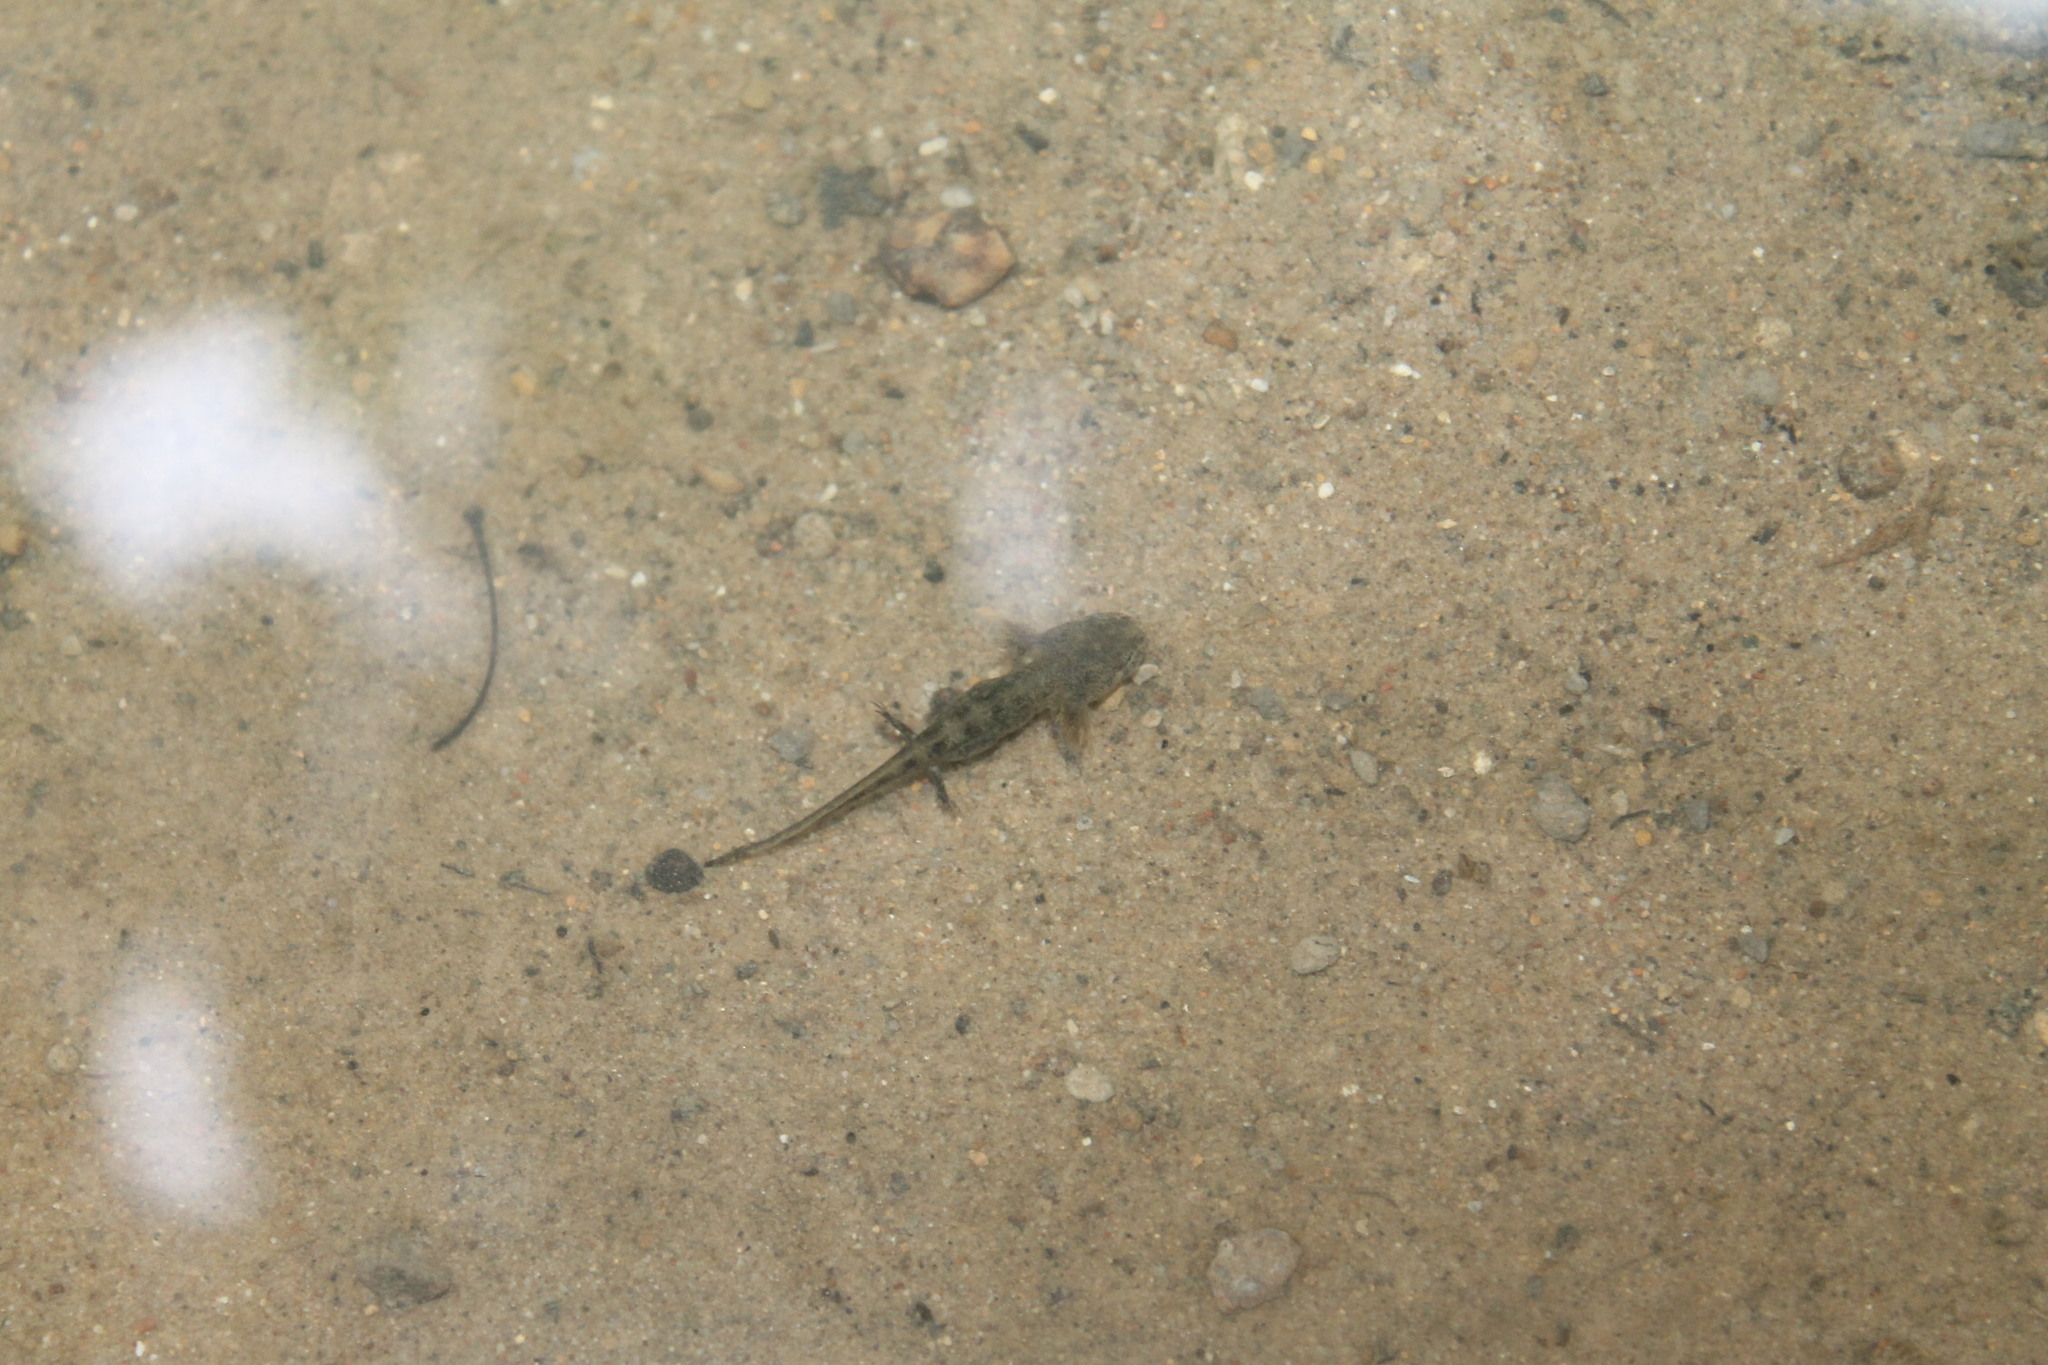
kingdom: Animalia
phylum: Chordata
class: Amphibia
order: Caudata
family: Salamandridae
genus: Notophthalmus
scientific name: Notophthalmus viridescens
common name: Eastern newt
